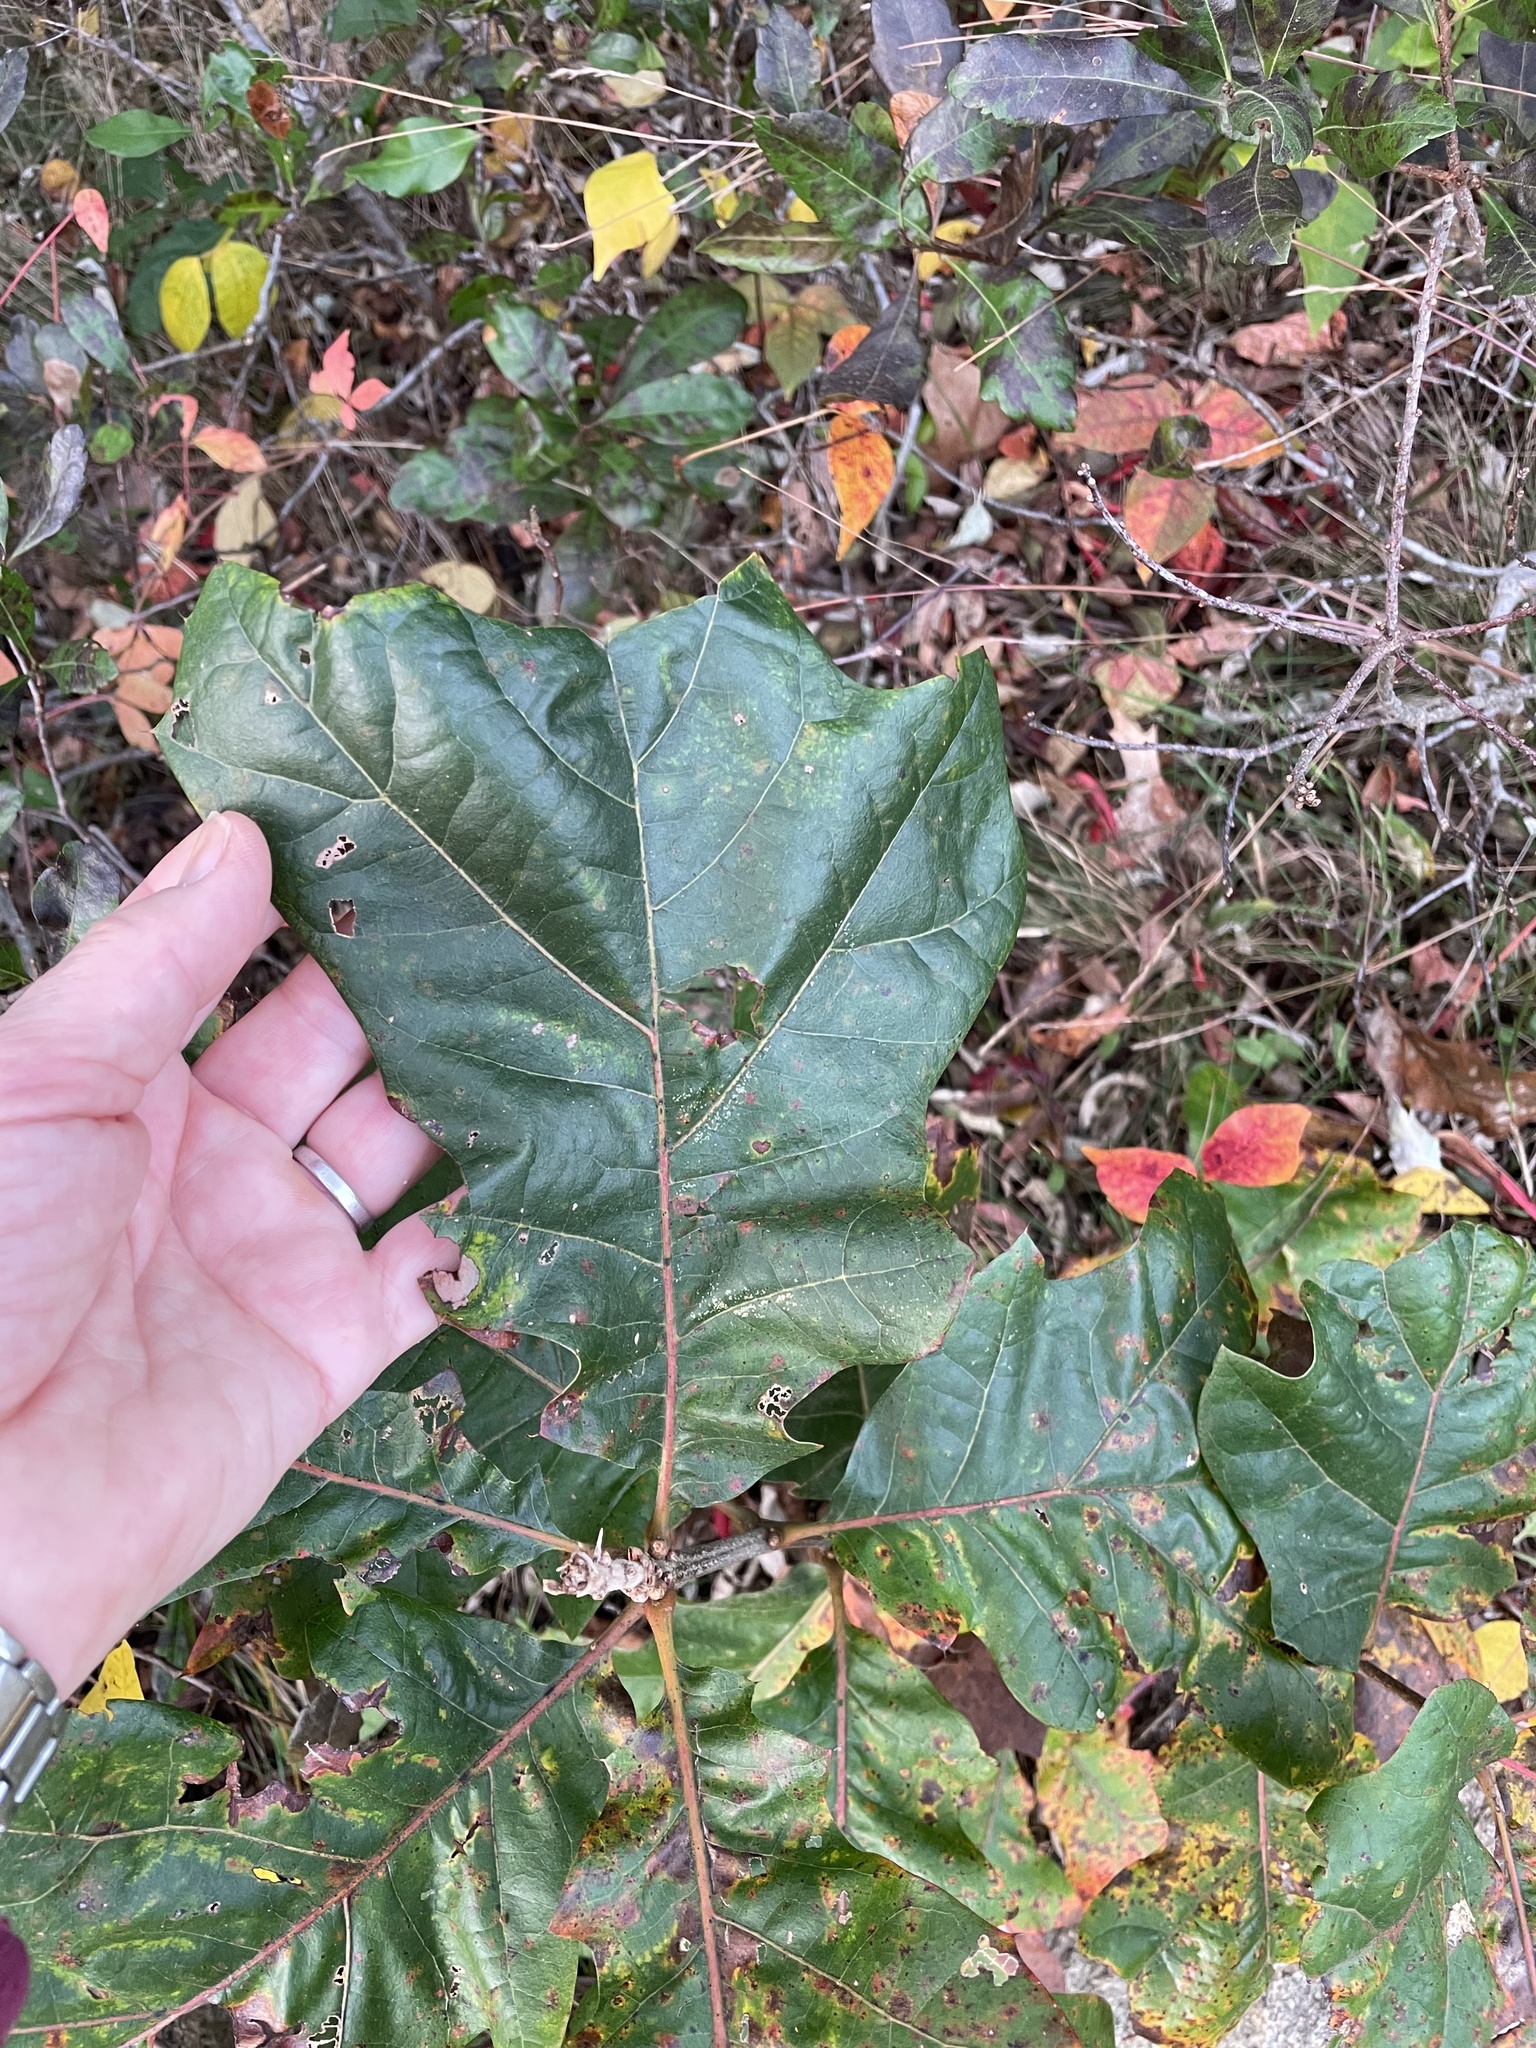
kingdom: Plantae
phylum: Tracheophyta
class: Magnoliopsida
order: Fagales
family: Fagaceae
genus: Quercus
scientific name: Quercus velutina
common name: Black oak
